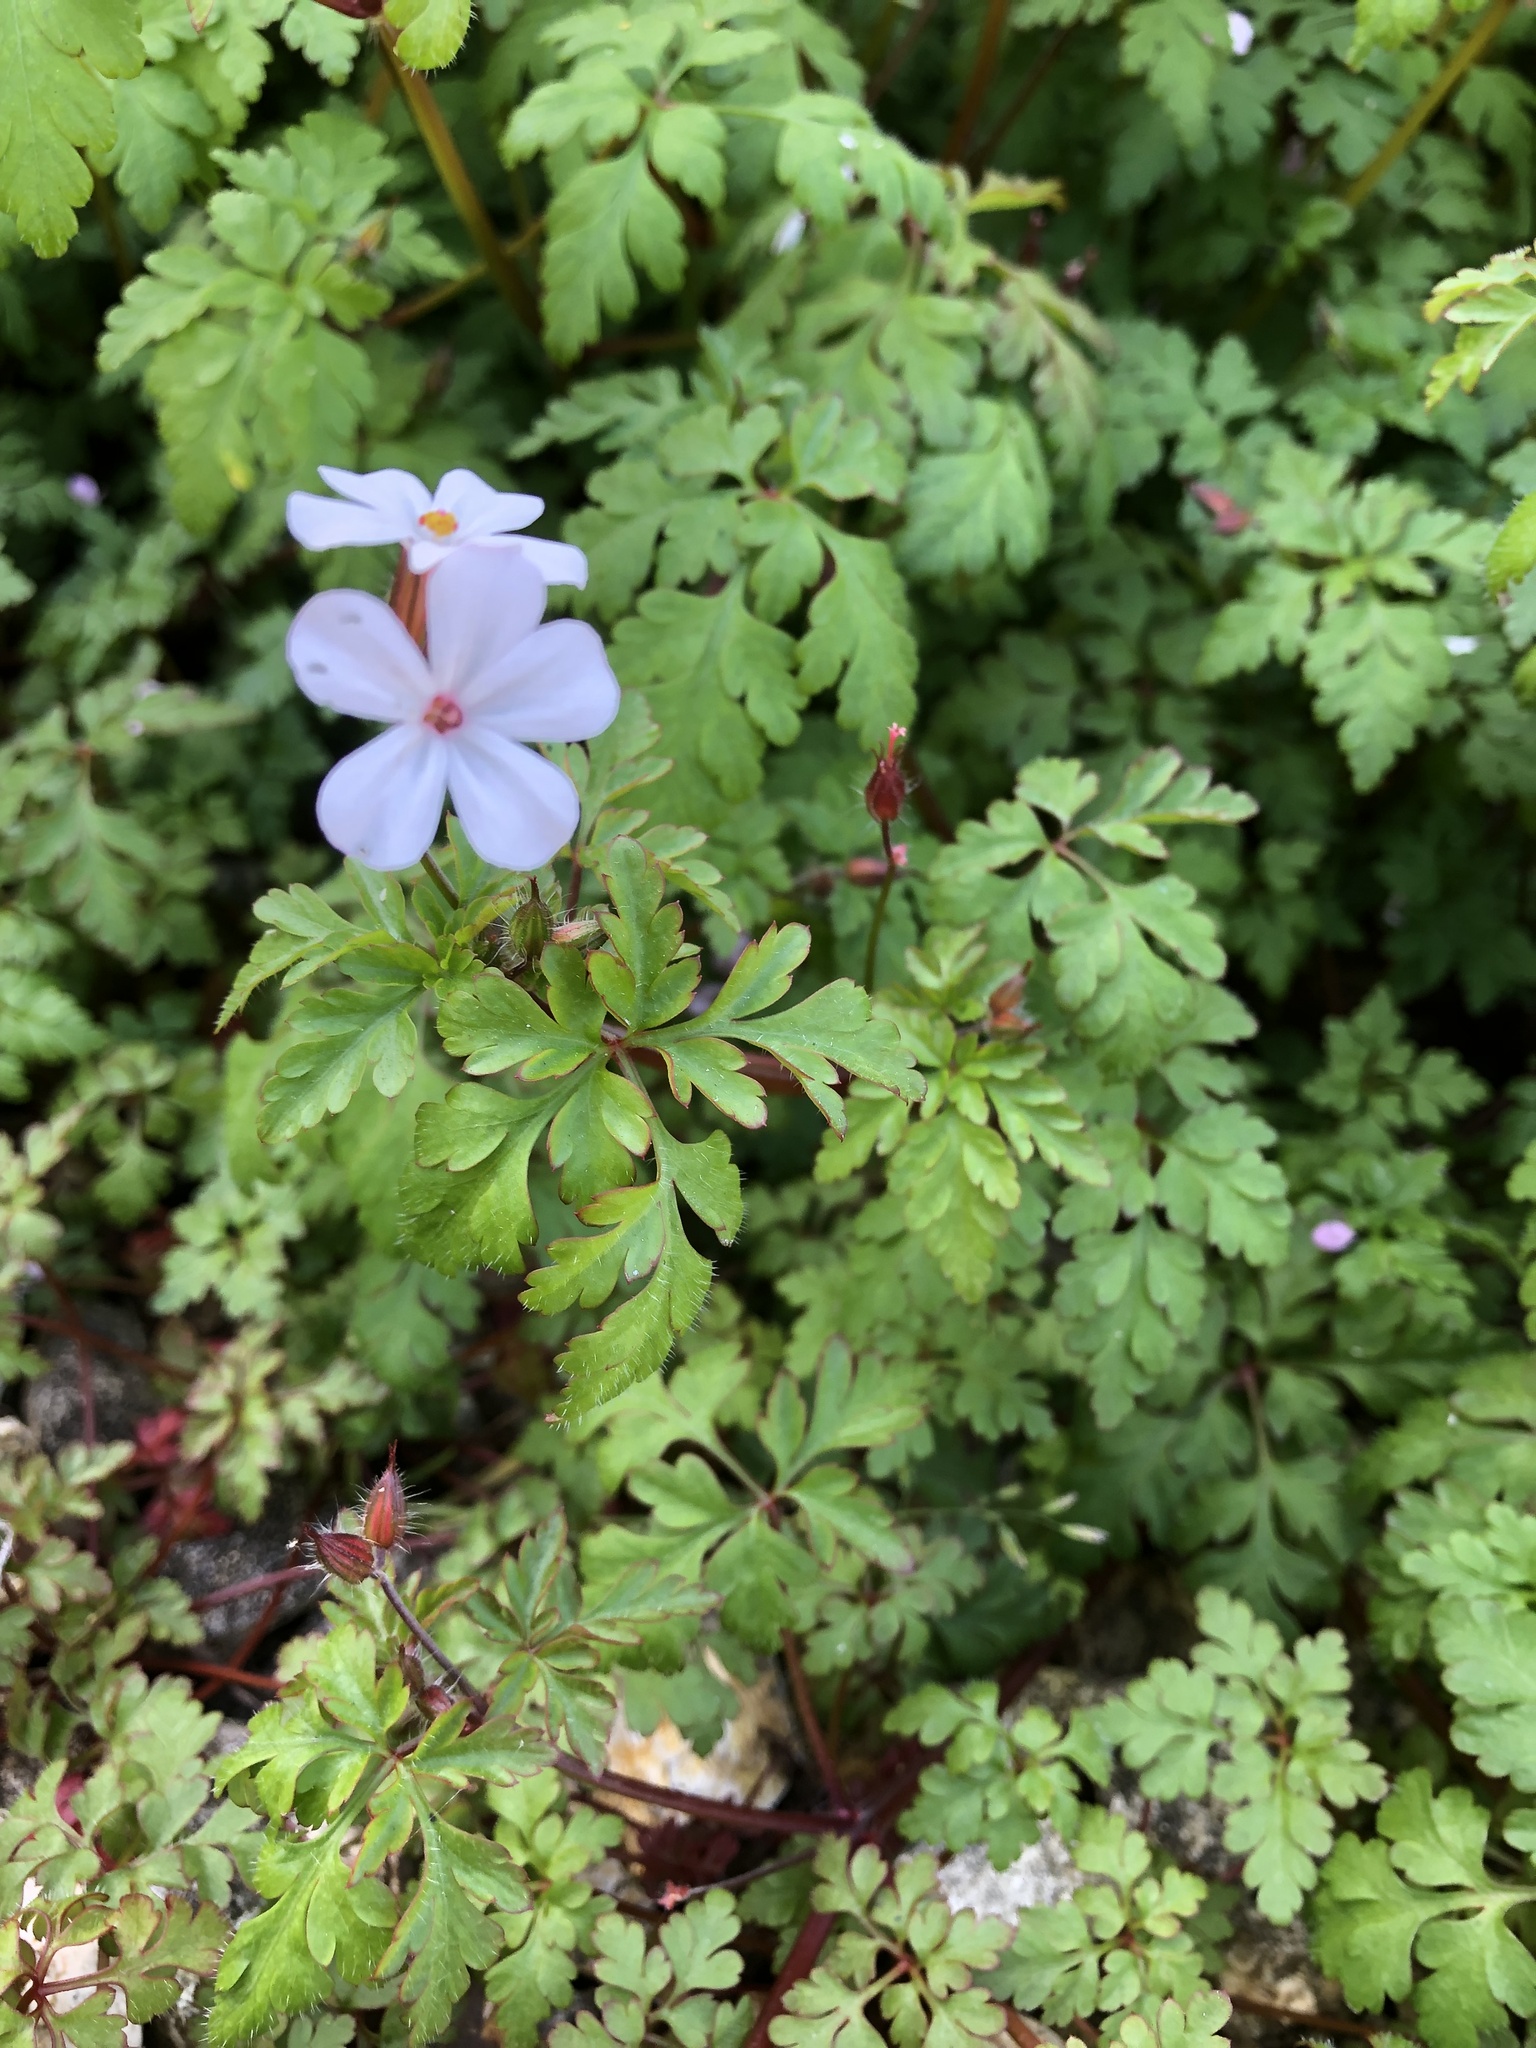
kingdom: Plantae
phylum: Tracheophyta
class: Magnoliopsida
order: Geraniales
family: Geraniaceae
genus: Geranium
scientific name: Geranium robertianum
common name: Herb-robert
